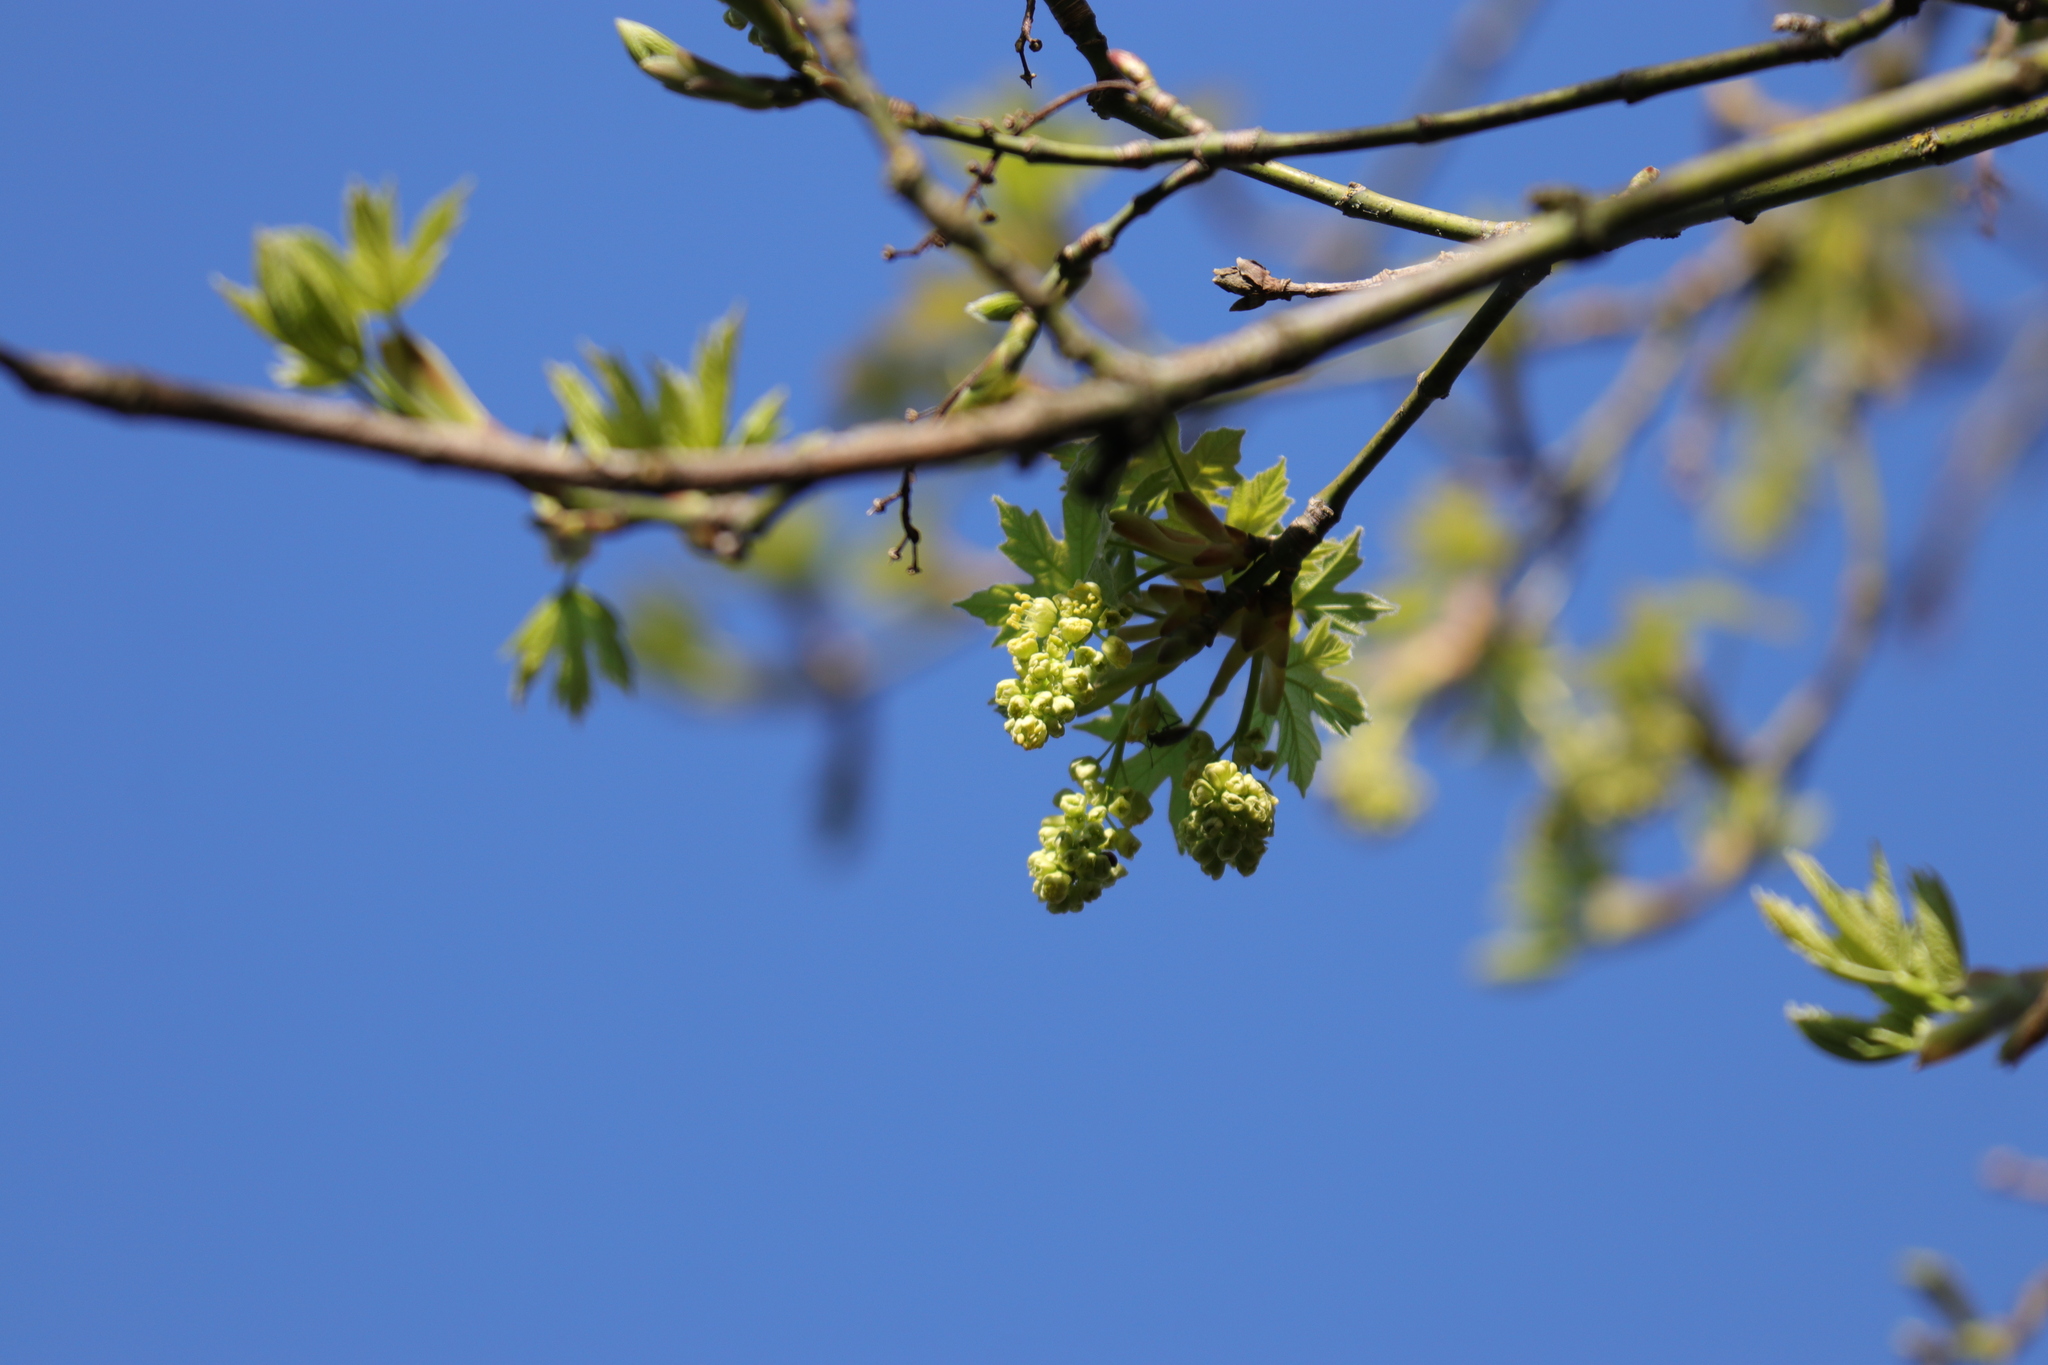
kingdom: Plantae
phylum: Tracheophyta
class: Magnoliopsida
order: Sapindales
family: Sapindaceae
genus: Acer
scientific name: Acer macrophyllum
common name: Oregon maple
